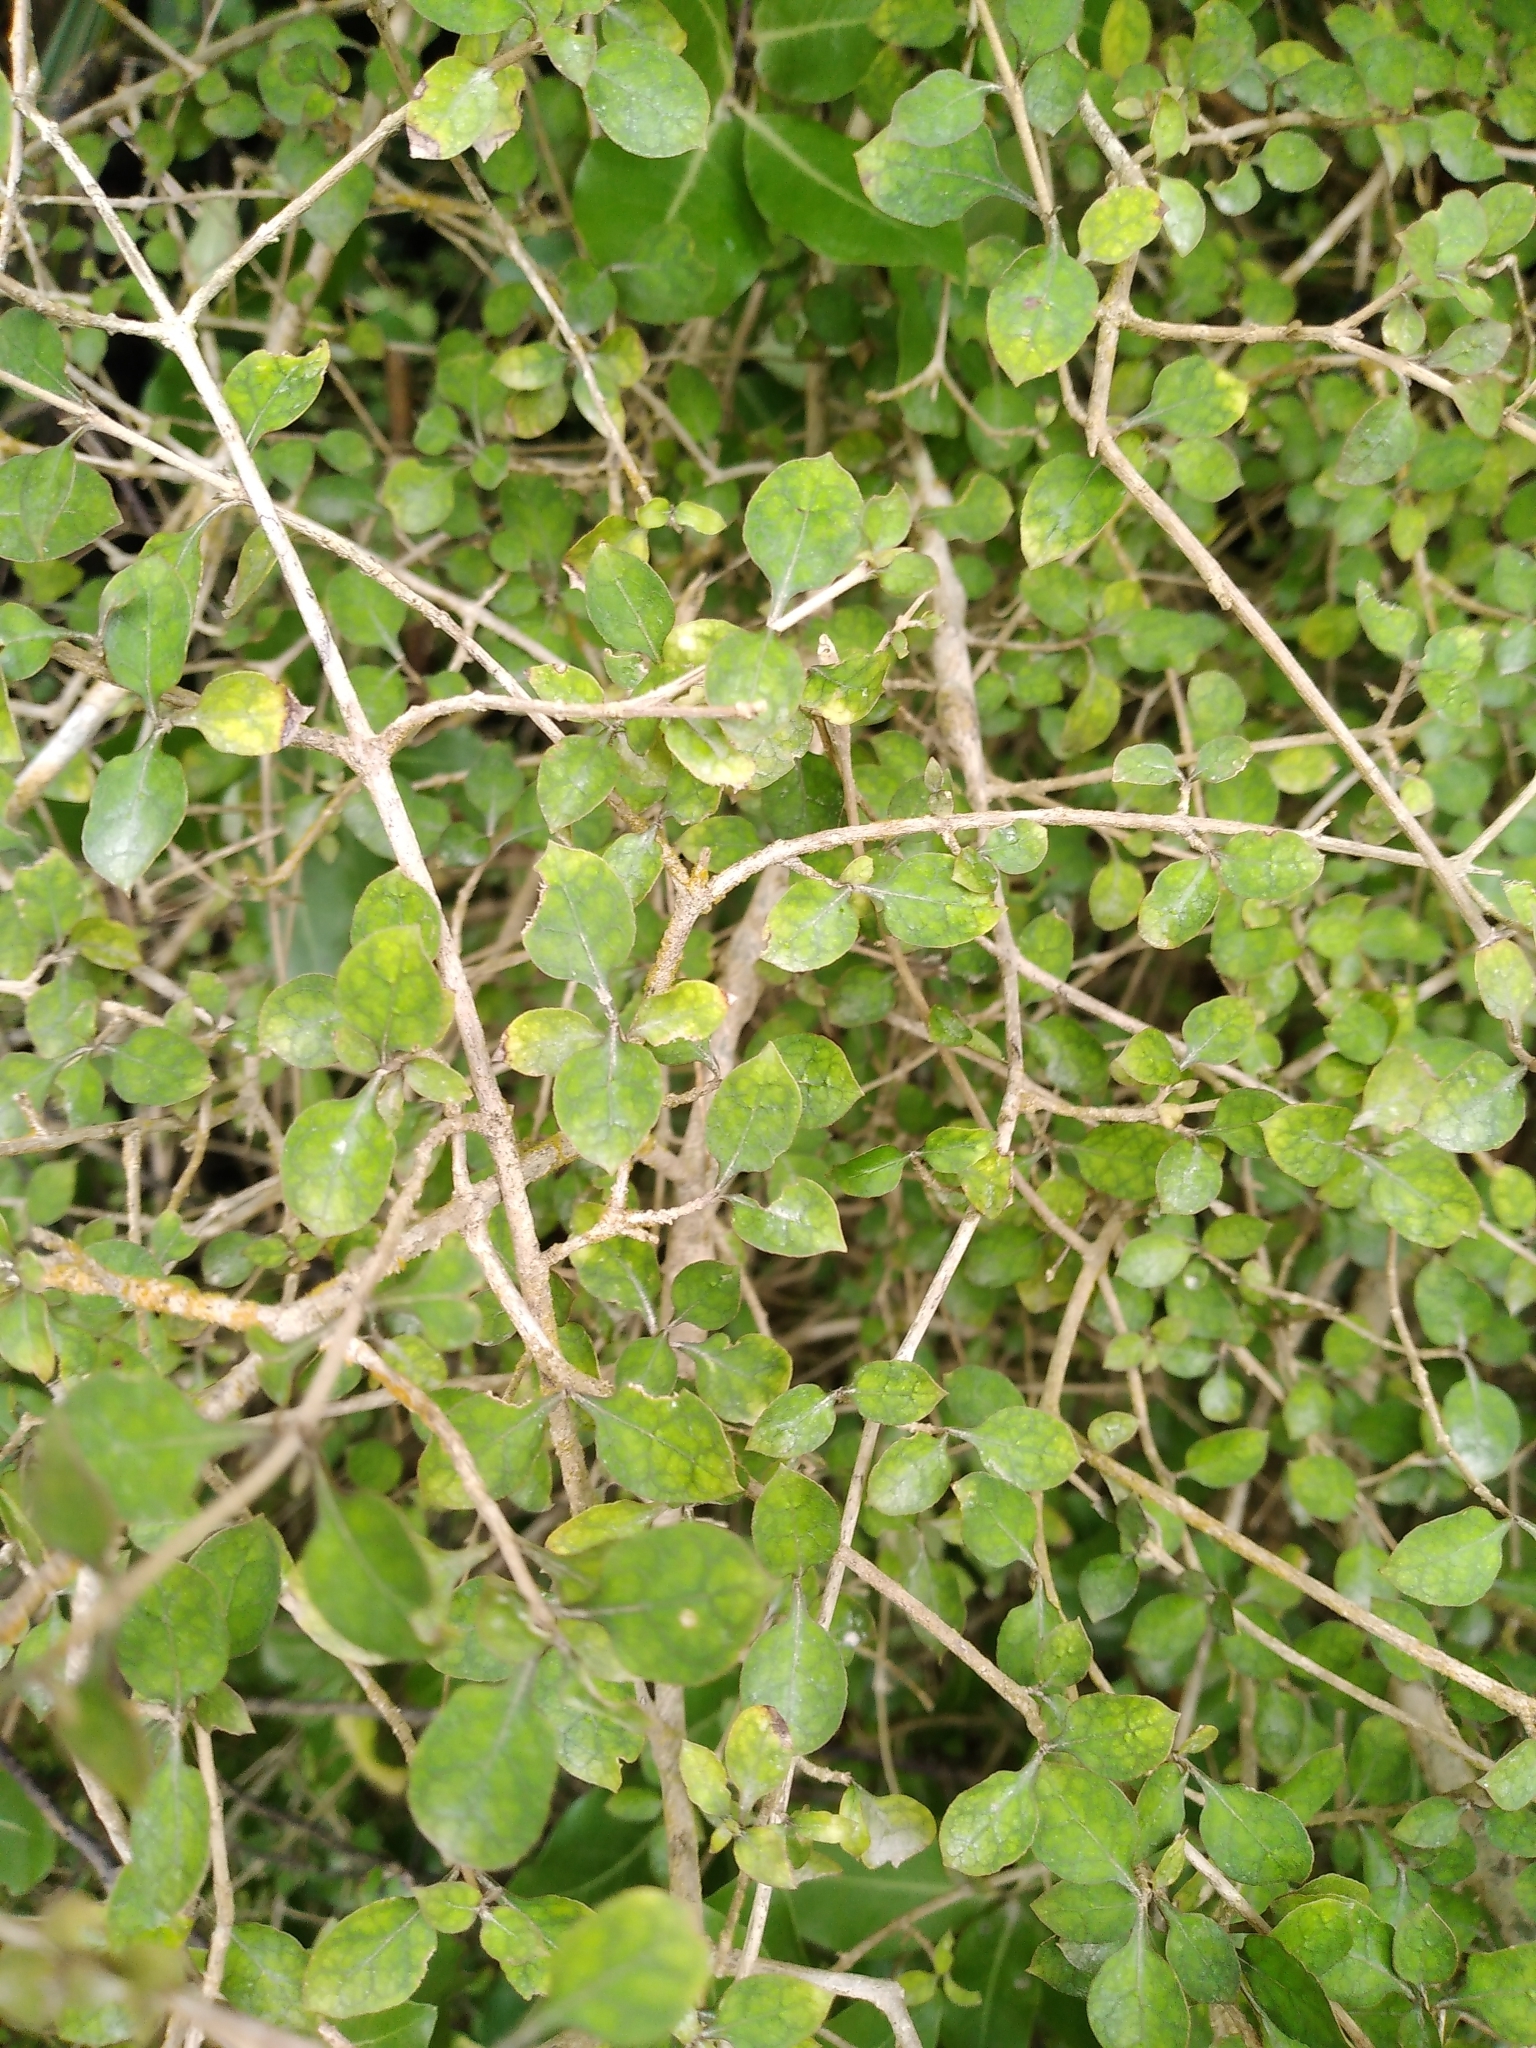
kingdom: Plantae
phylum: Tracheophyta
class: Magnoliopsida
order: Gentianales
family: Rubiaceae
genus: Coprosma
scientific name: Coprosma areolata
